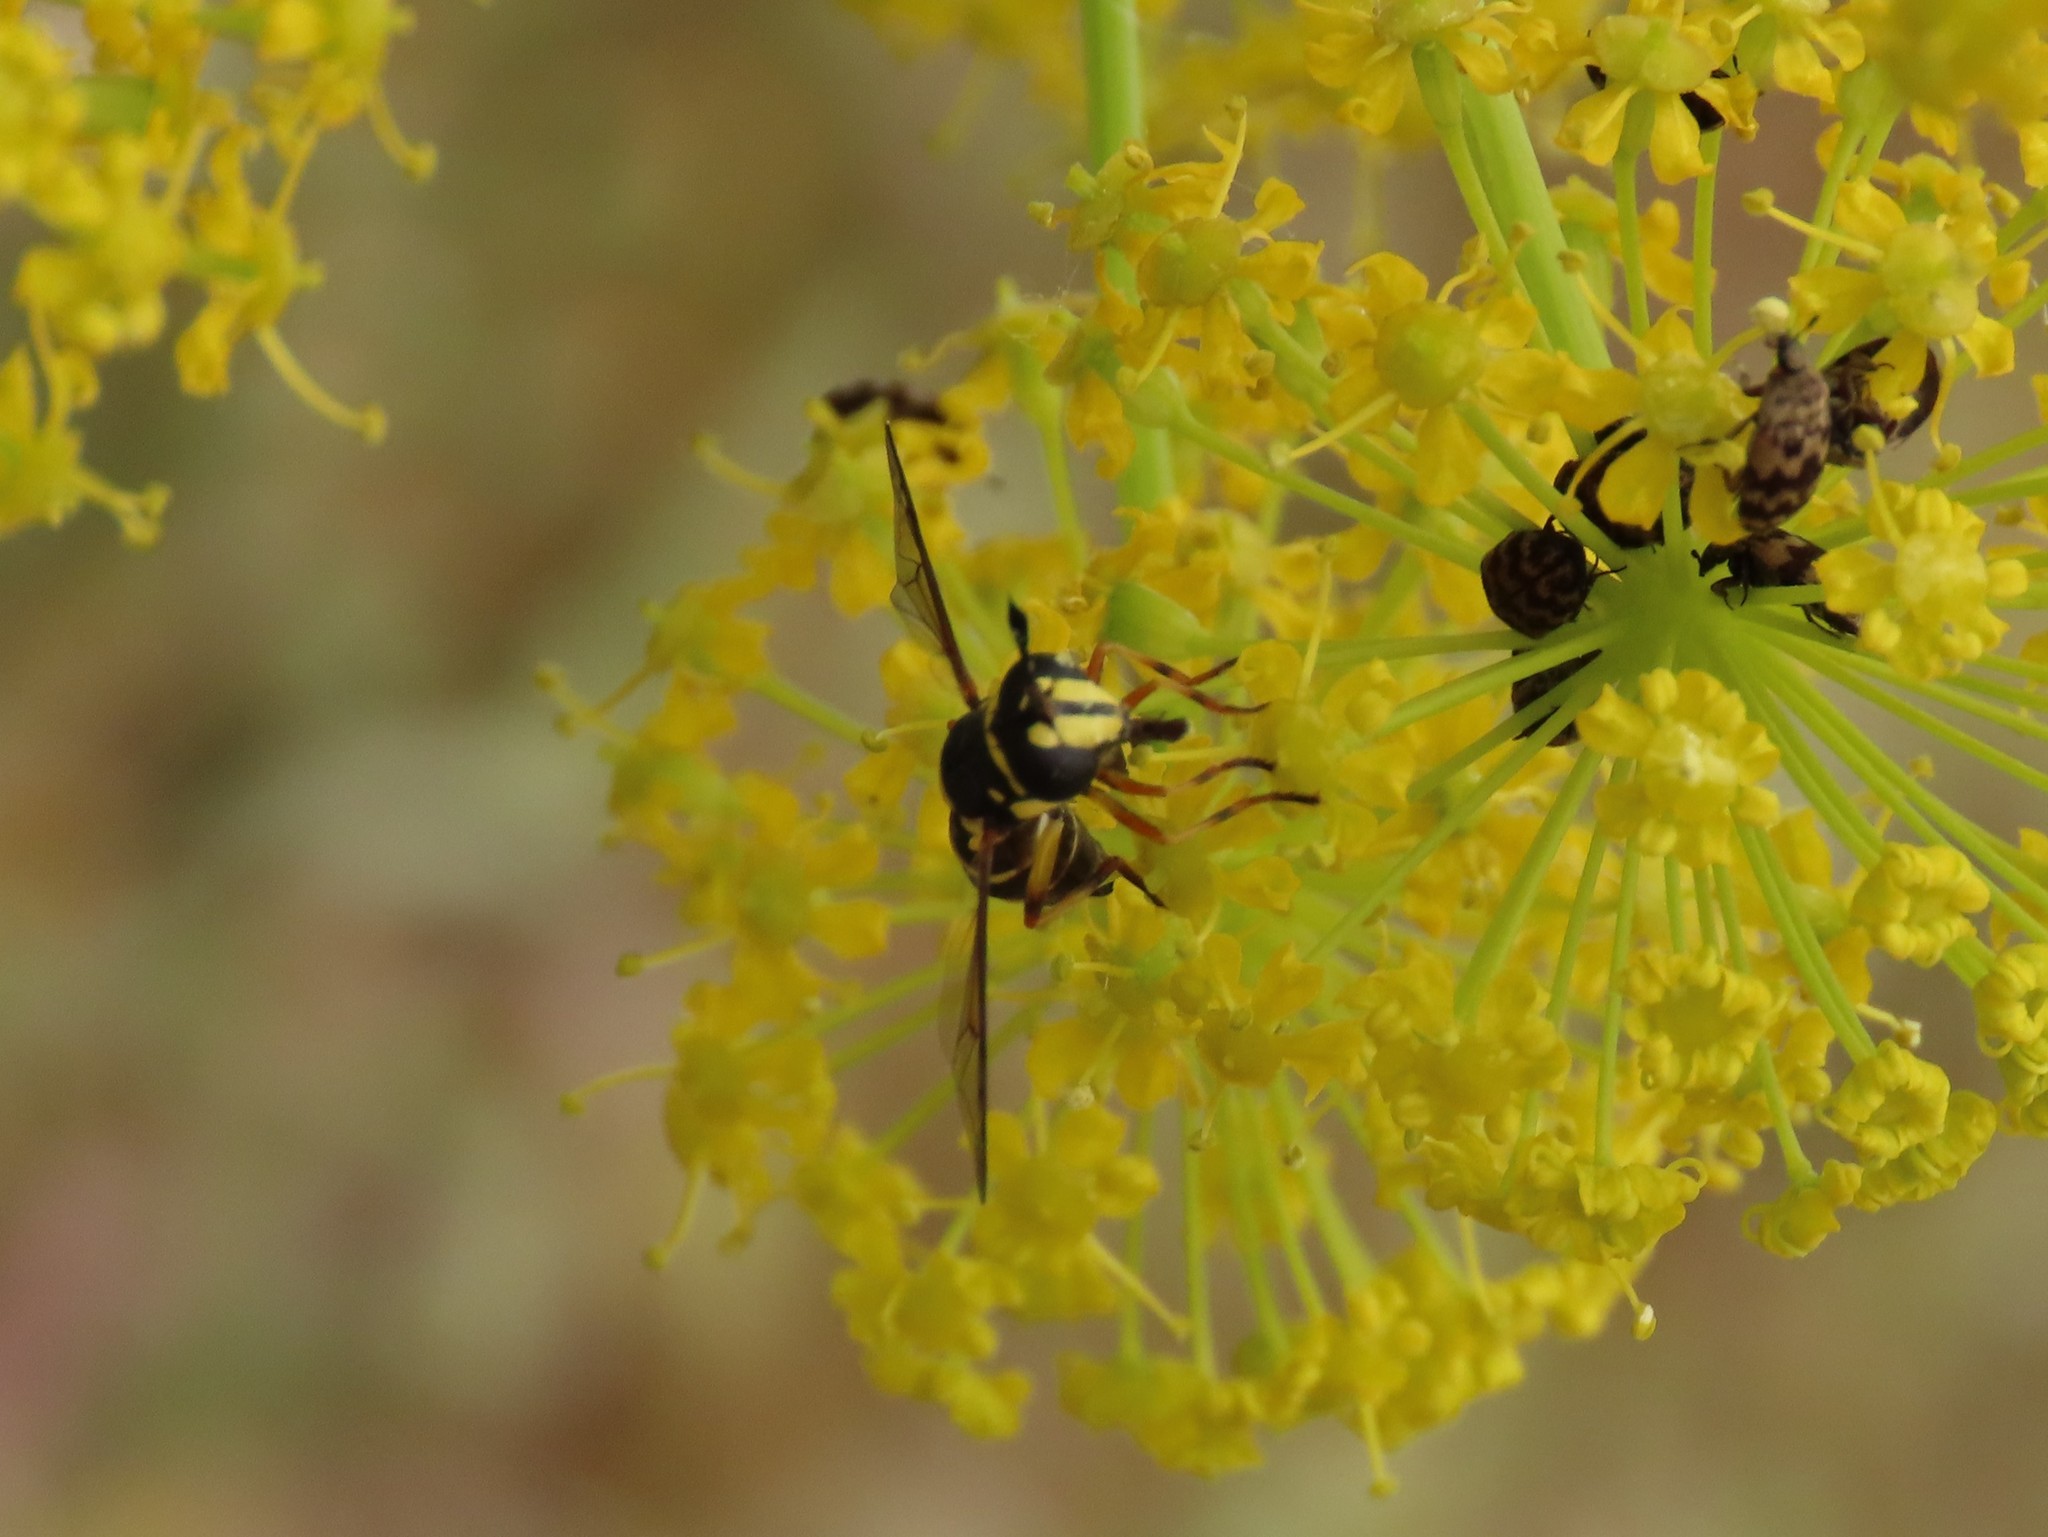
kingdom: Animalia
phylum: Arthropoda
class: Insecta
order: Diptera
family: Syrphidae
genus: Ceriana
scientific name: Ceriana vespiformis
